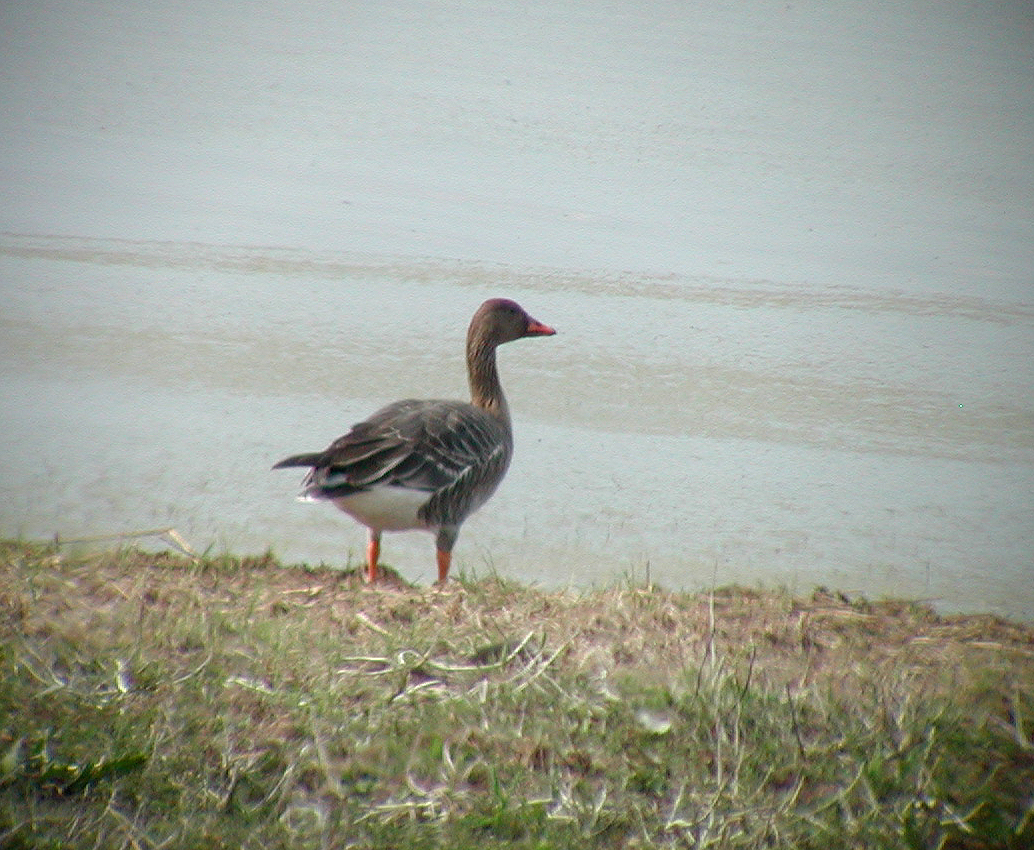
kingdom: Animalia
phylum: Chordata
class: Aves
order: Anseriformes
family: Anatidae
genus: Anser
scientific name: Anser fabalis
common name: Bean goose
